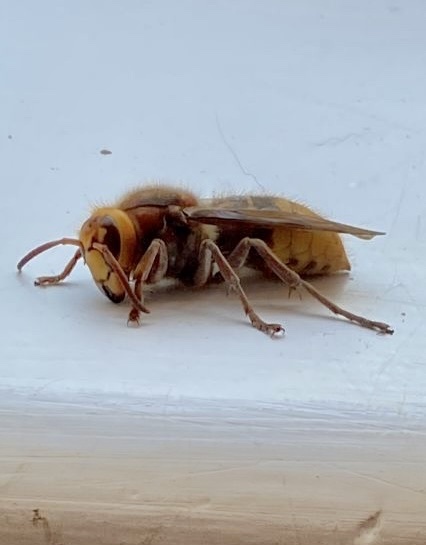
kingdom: Animalia
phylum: Arthropoda
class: Insecta
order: Hymenoptera
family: Vespidae
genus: Vespa
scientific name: Vespa crabro
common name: Hornet
